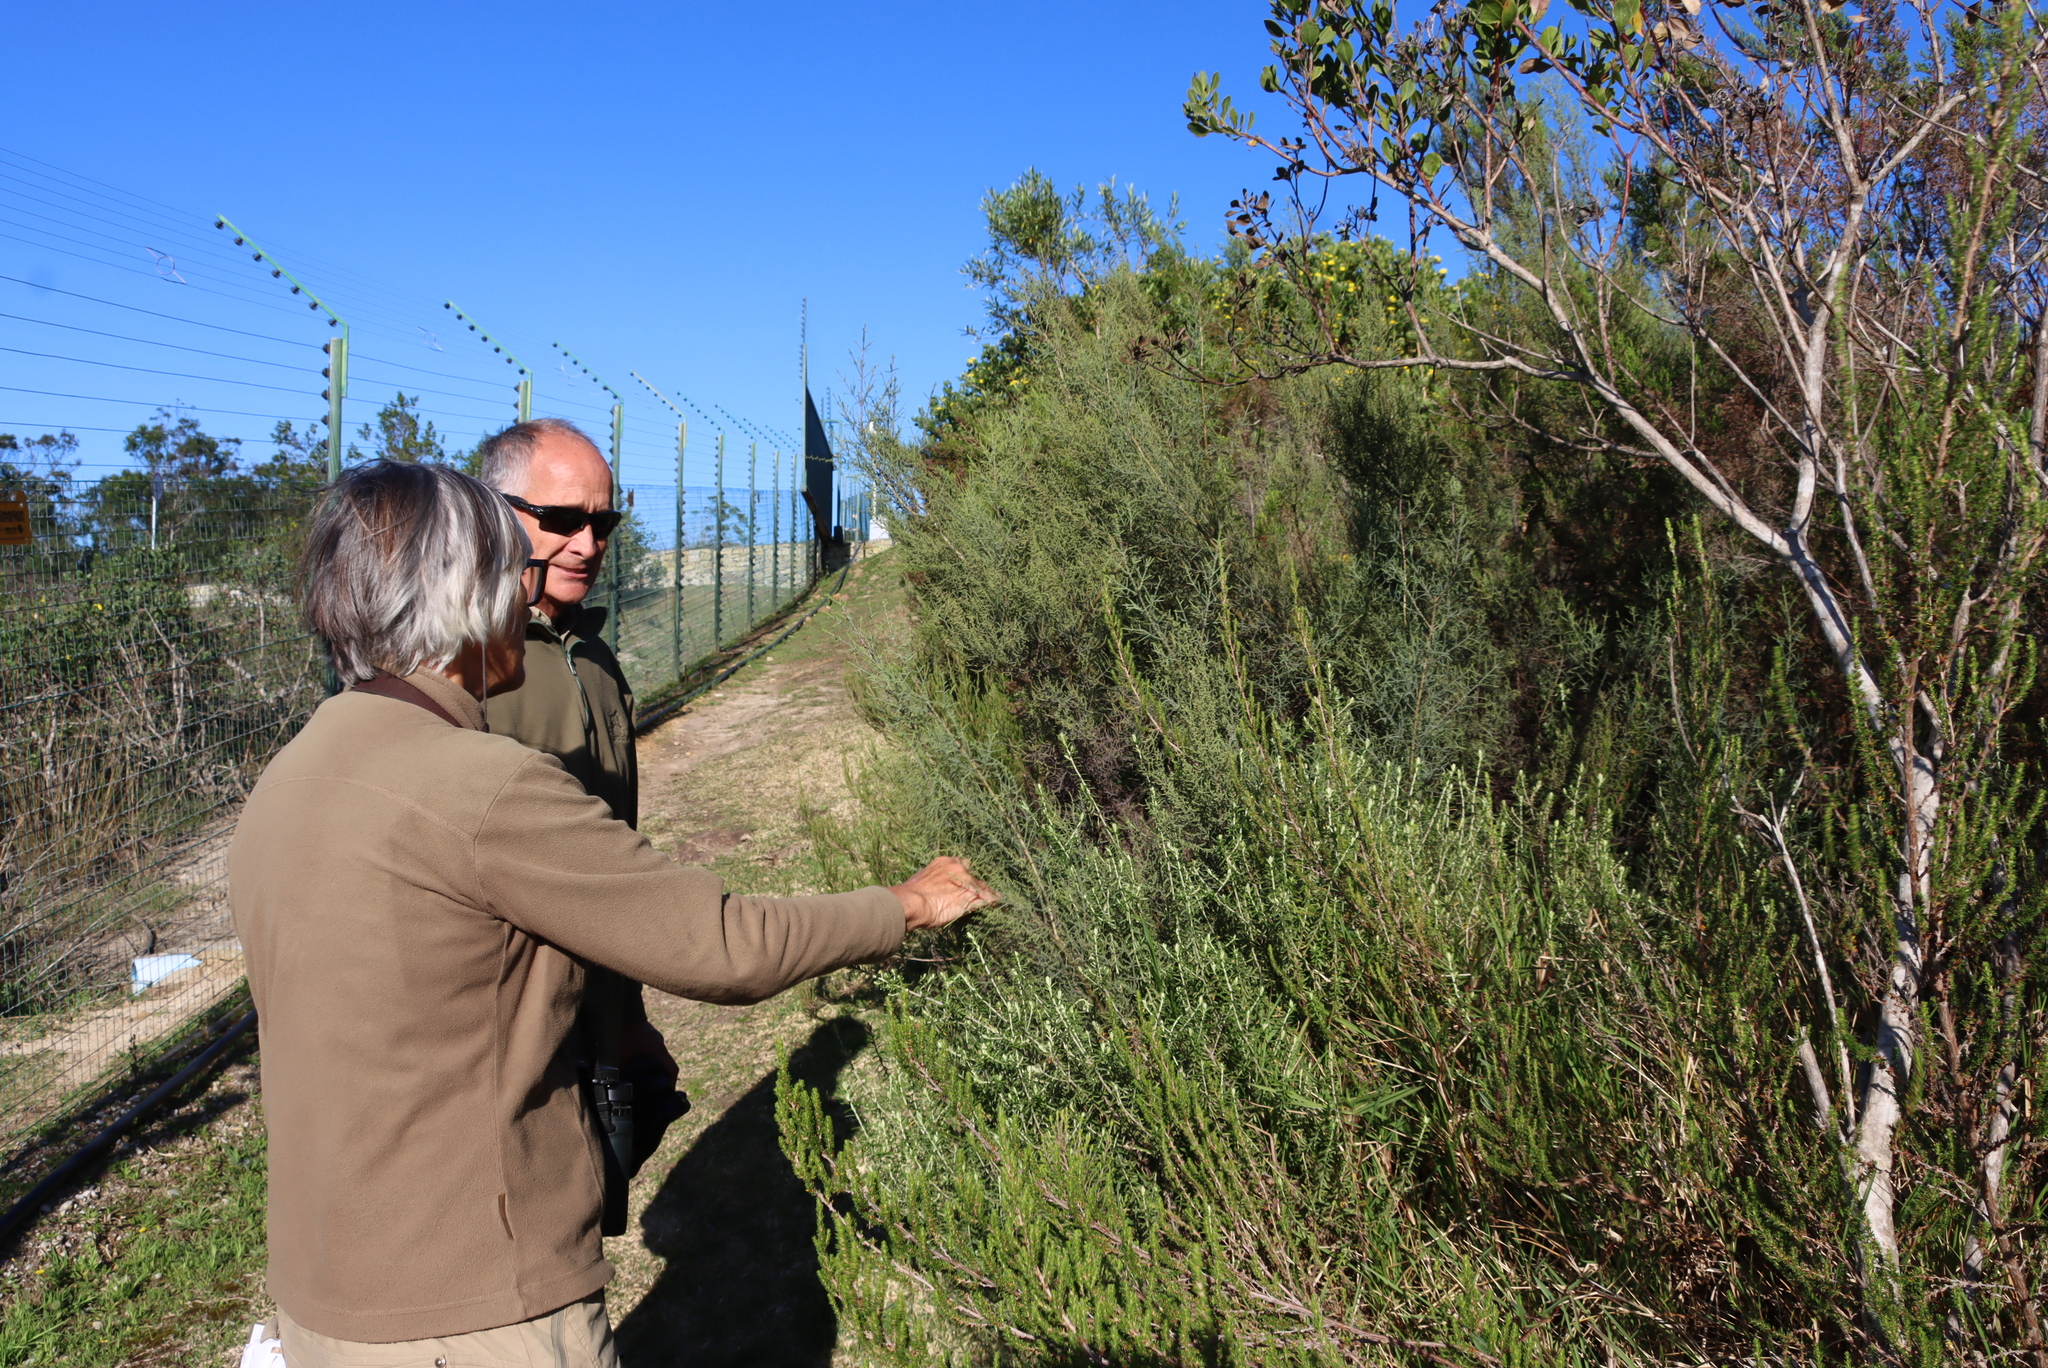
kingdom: Plantae
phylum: Tracheophyta
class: Magnoliopsida
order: Asterales
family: Asteraceae
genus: Seriphium
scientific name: Seriphium plumosum
